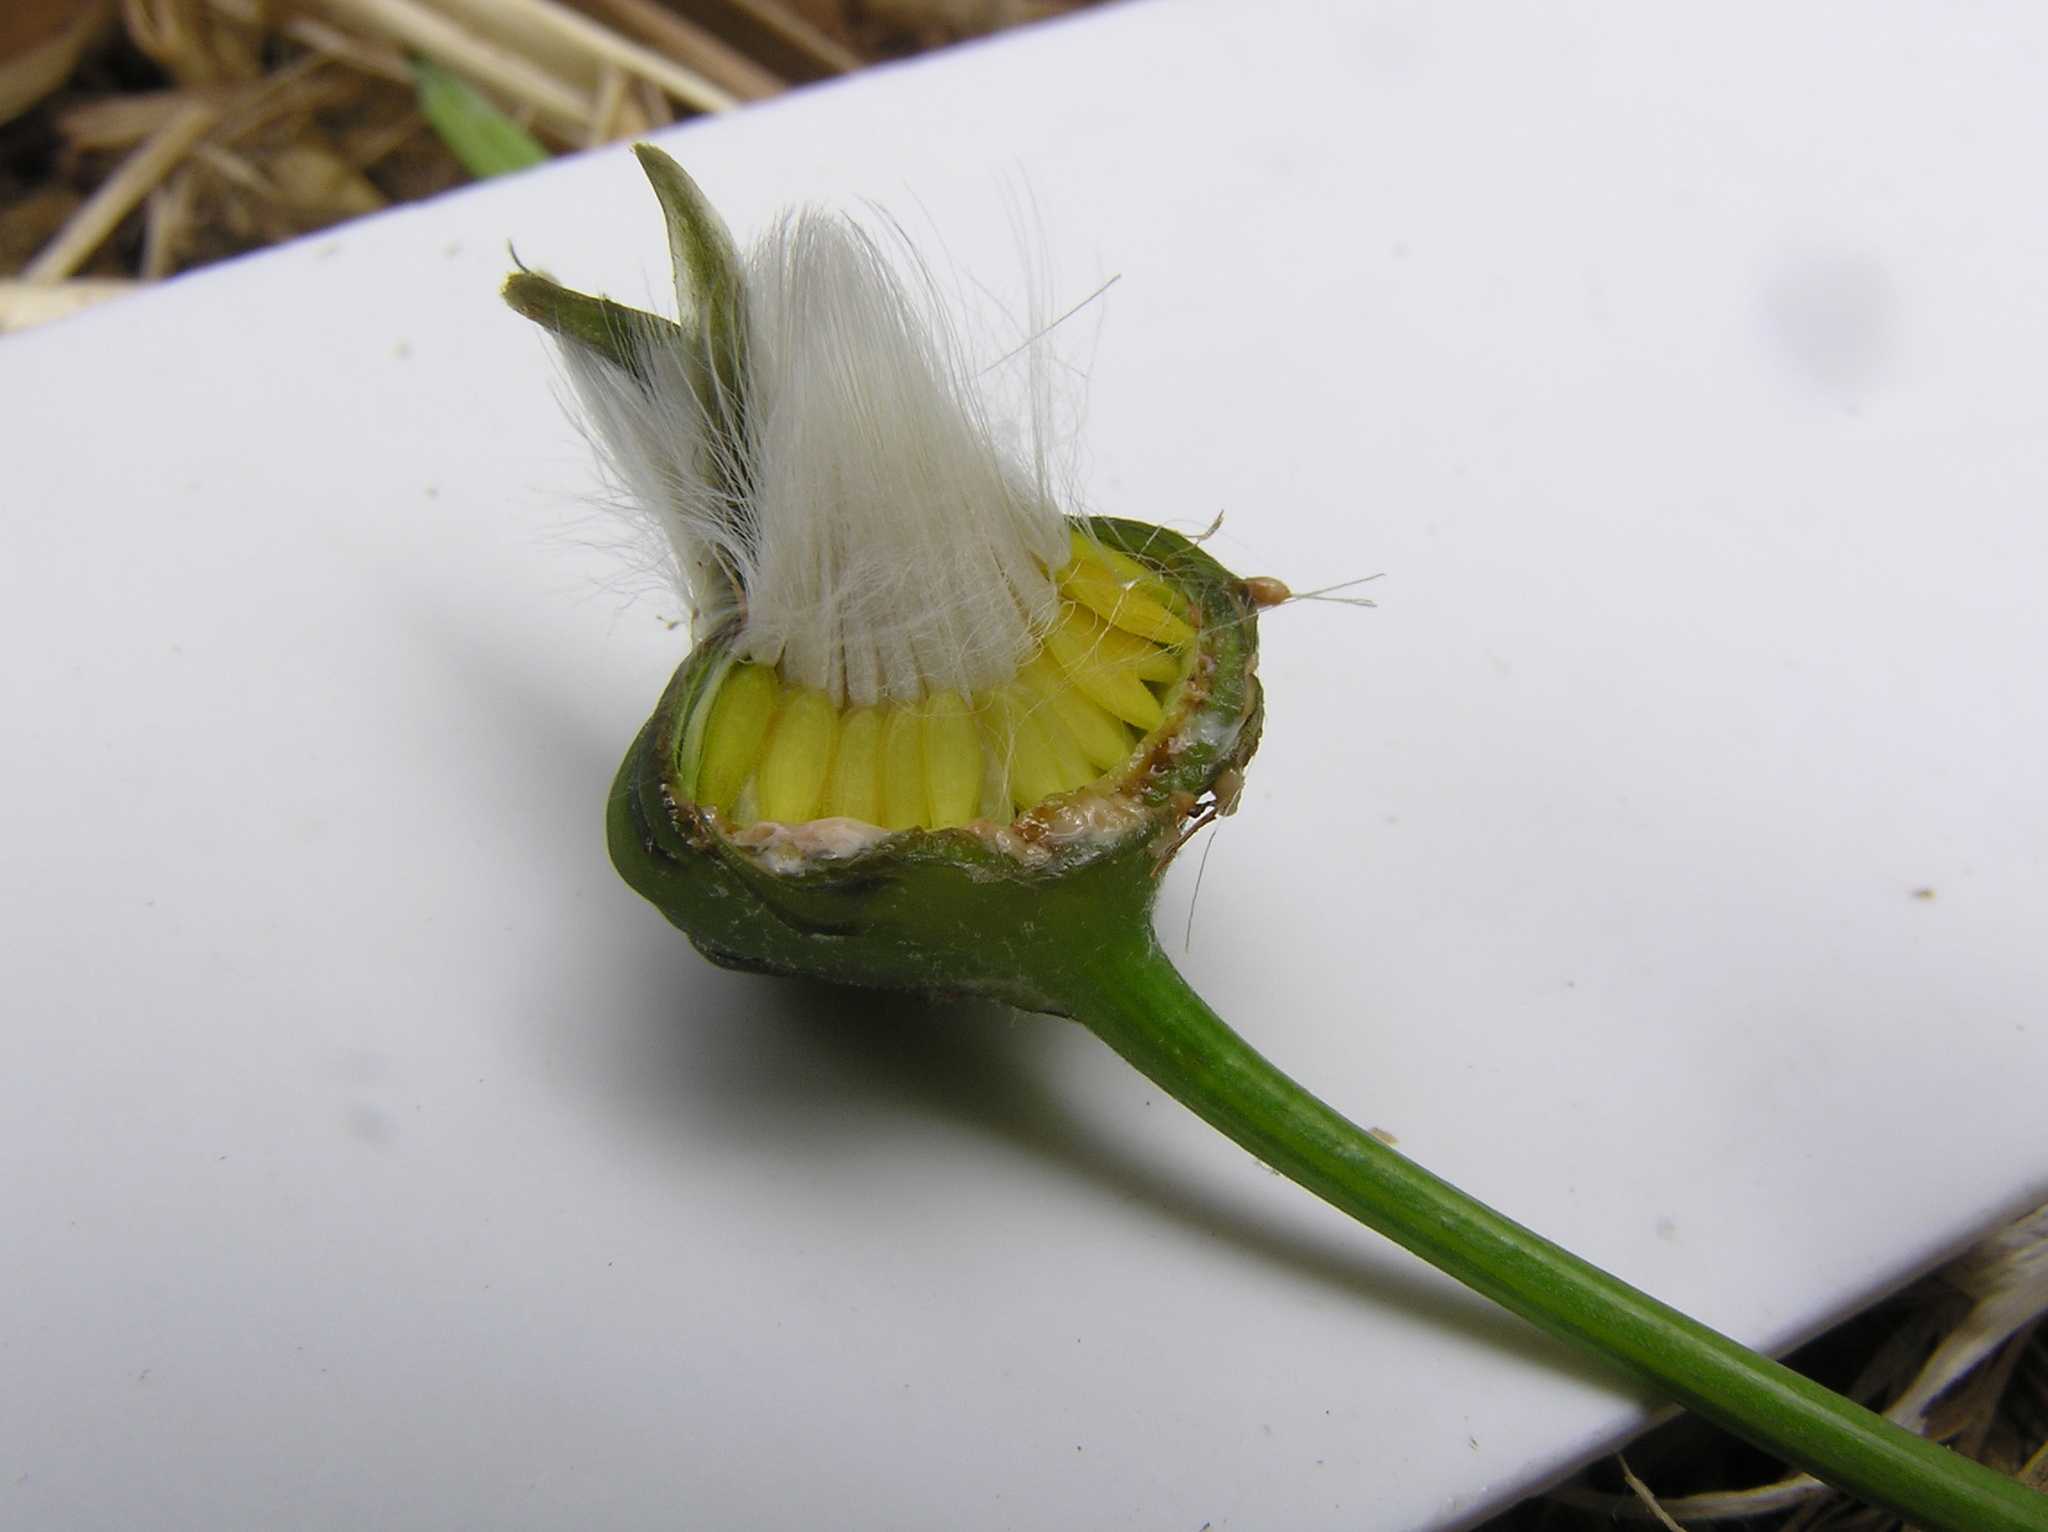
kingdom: Plantae
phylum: Tracheophyta
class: Magnoliopsida
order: Asterales
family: Asteraceae
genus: Sonchus
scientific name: Sonchus oleraceus
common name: Common sowthistle
